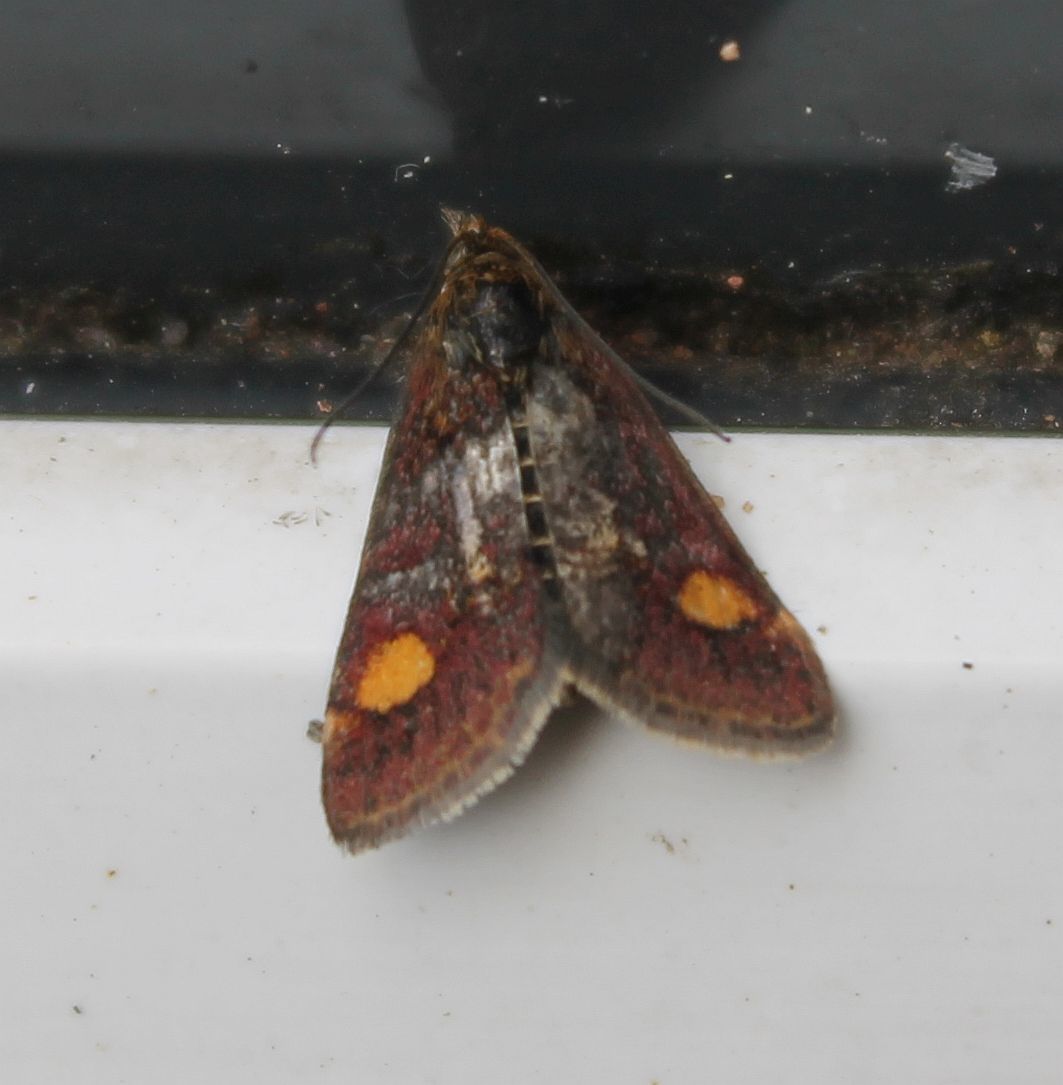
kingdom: Animalia
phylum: Arthropoda
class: Insecta
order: Lepidoptera
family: Crambidae
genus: Pyrausta
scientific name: Pyrausta aurata
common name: Small purple & gold
